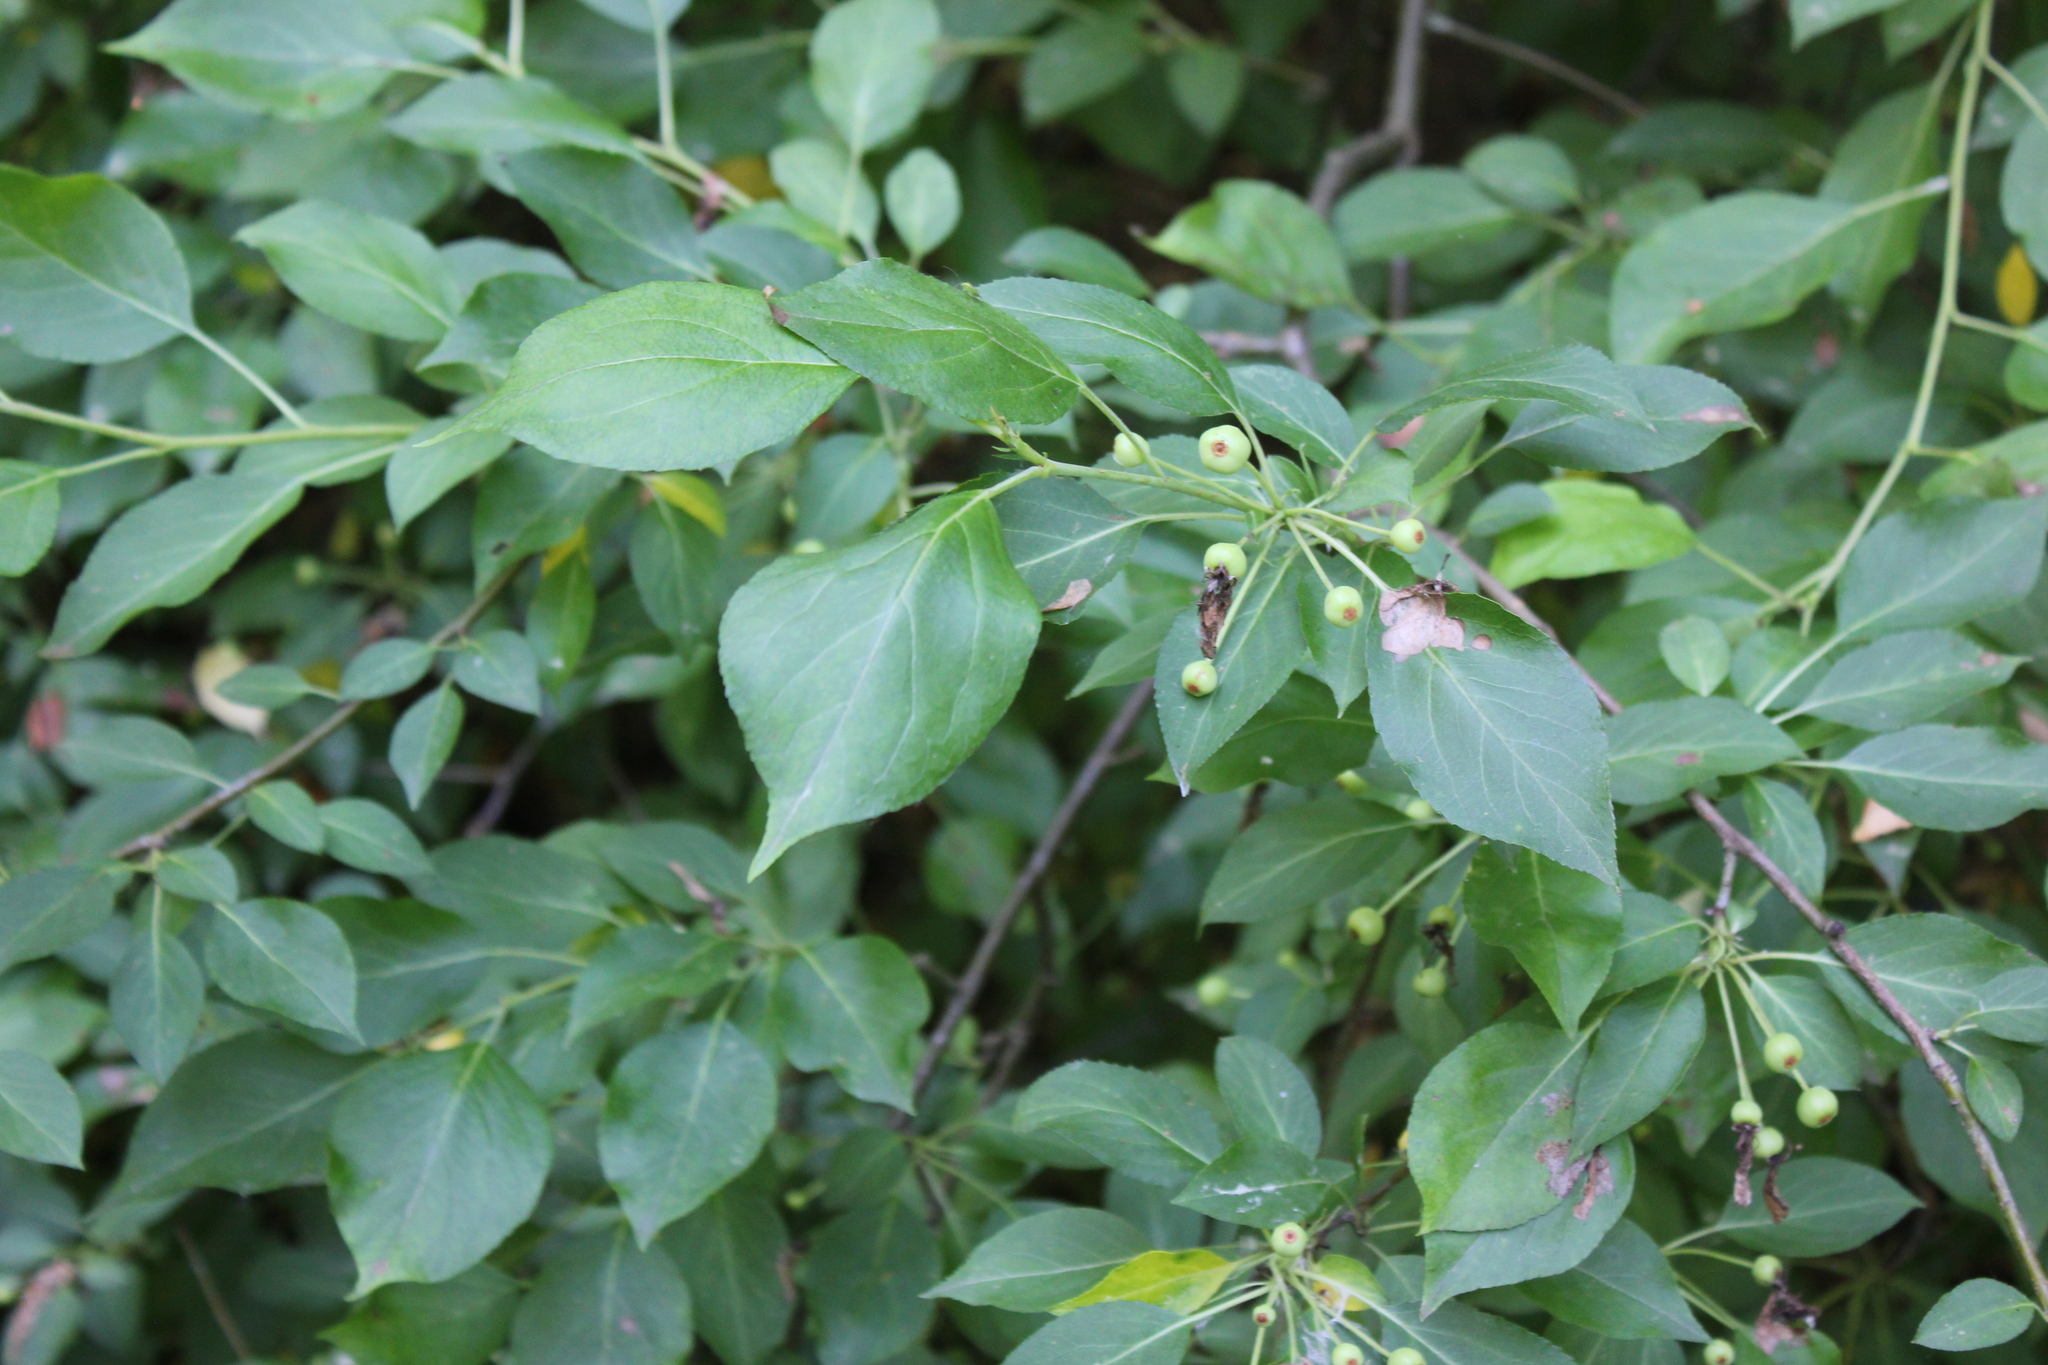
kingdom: Plantae
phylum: Tracheophyta
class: Magnoliopsida
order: Rosales
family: Rosaceae
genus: Malus
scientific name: Malus baccata
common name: Siberian crab
